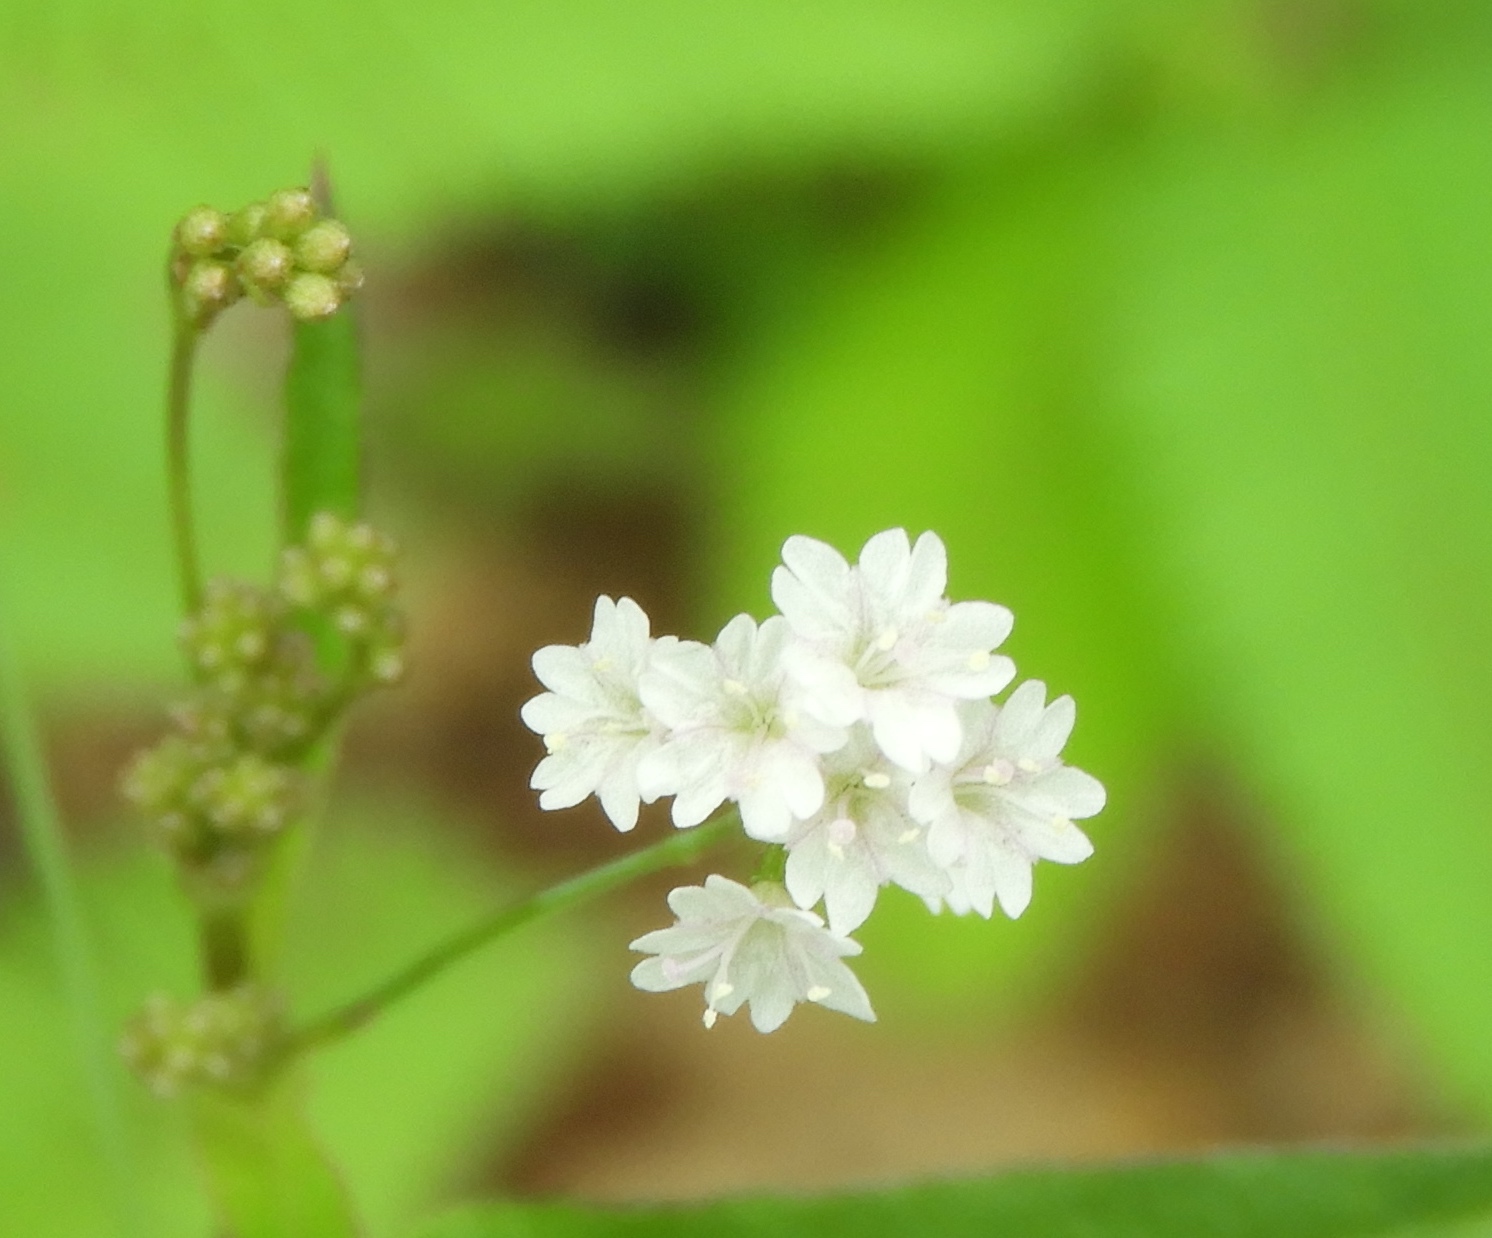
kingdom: Plantae
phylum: Tracheophyta
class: Magnoliopsida
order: Caryophyllales
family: Nyctaginaceae
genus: Boerhavia
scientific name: Boerhavia erecta
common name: Erect spiderling
